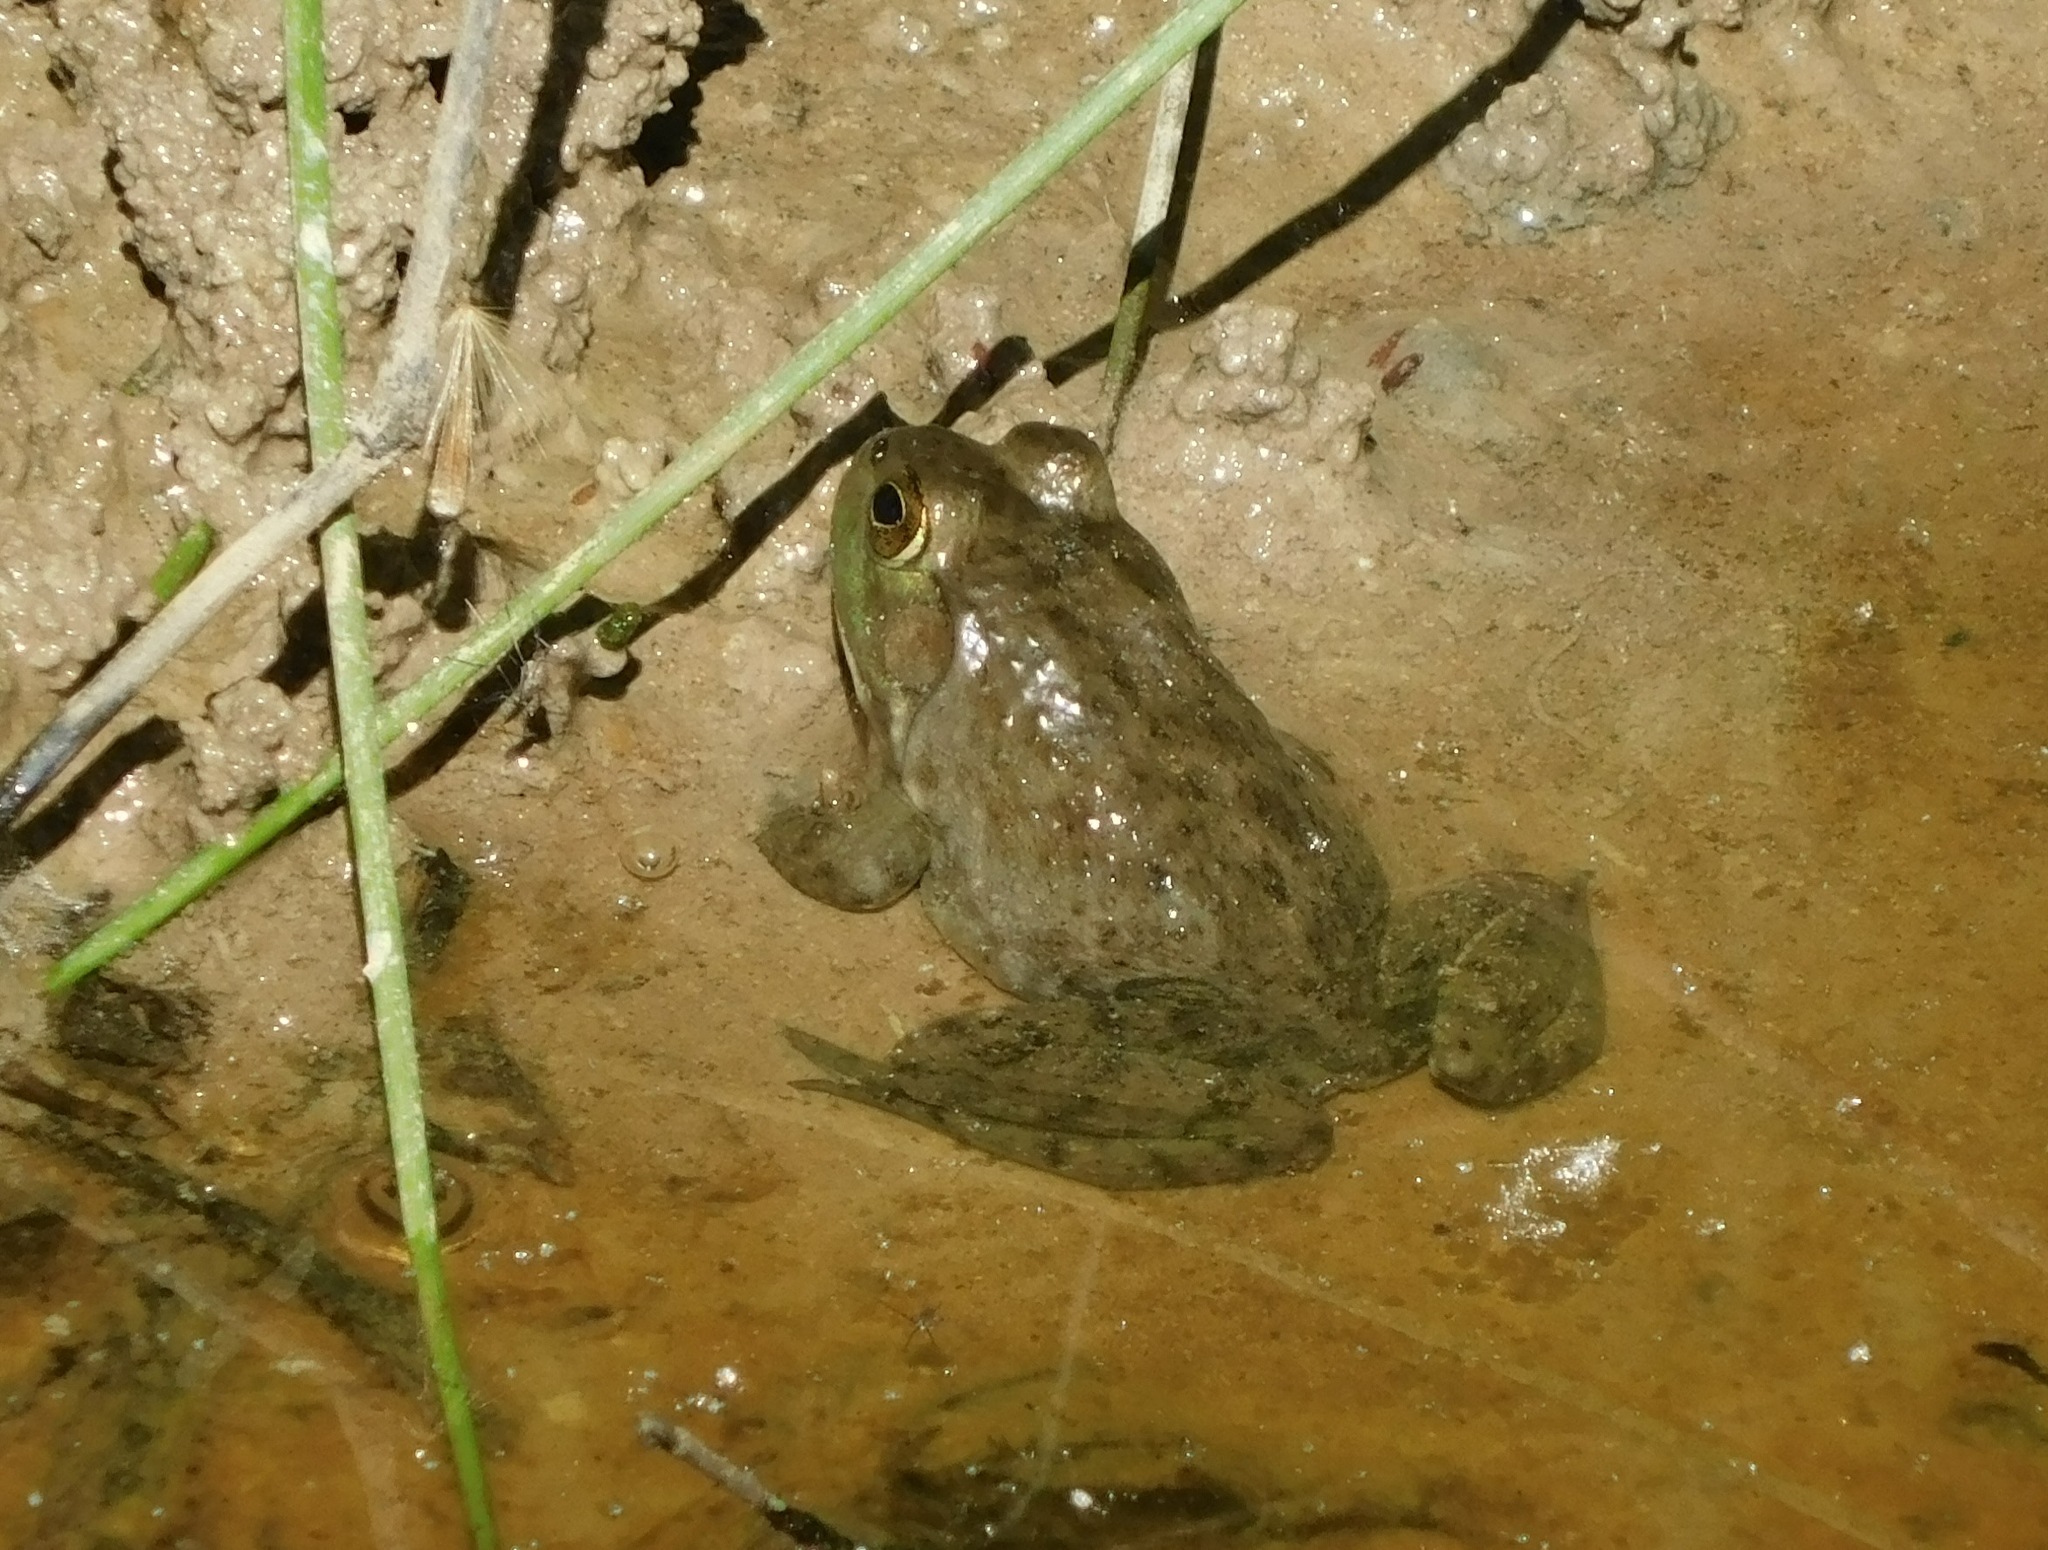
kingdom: Animalia
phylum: Chordata
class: Amphibia
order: Anura
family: Ranidae
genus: Lithobates
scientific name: Lithobates catesbeianus
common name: American bullfrog
